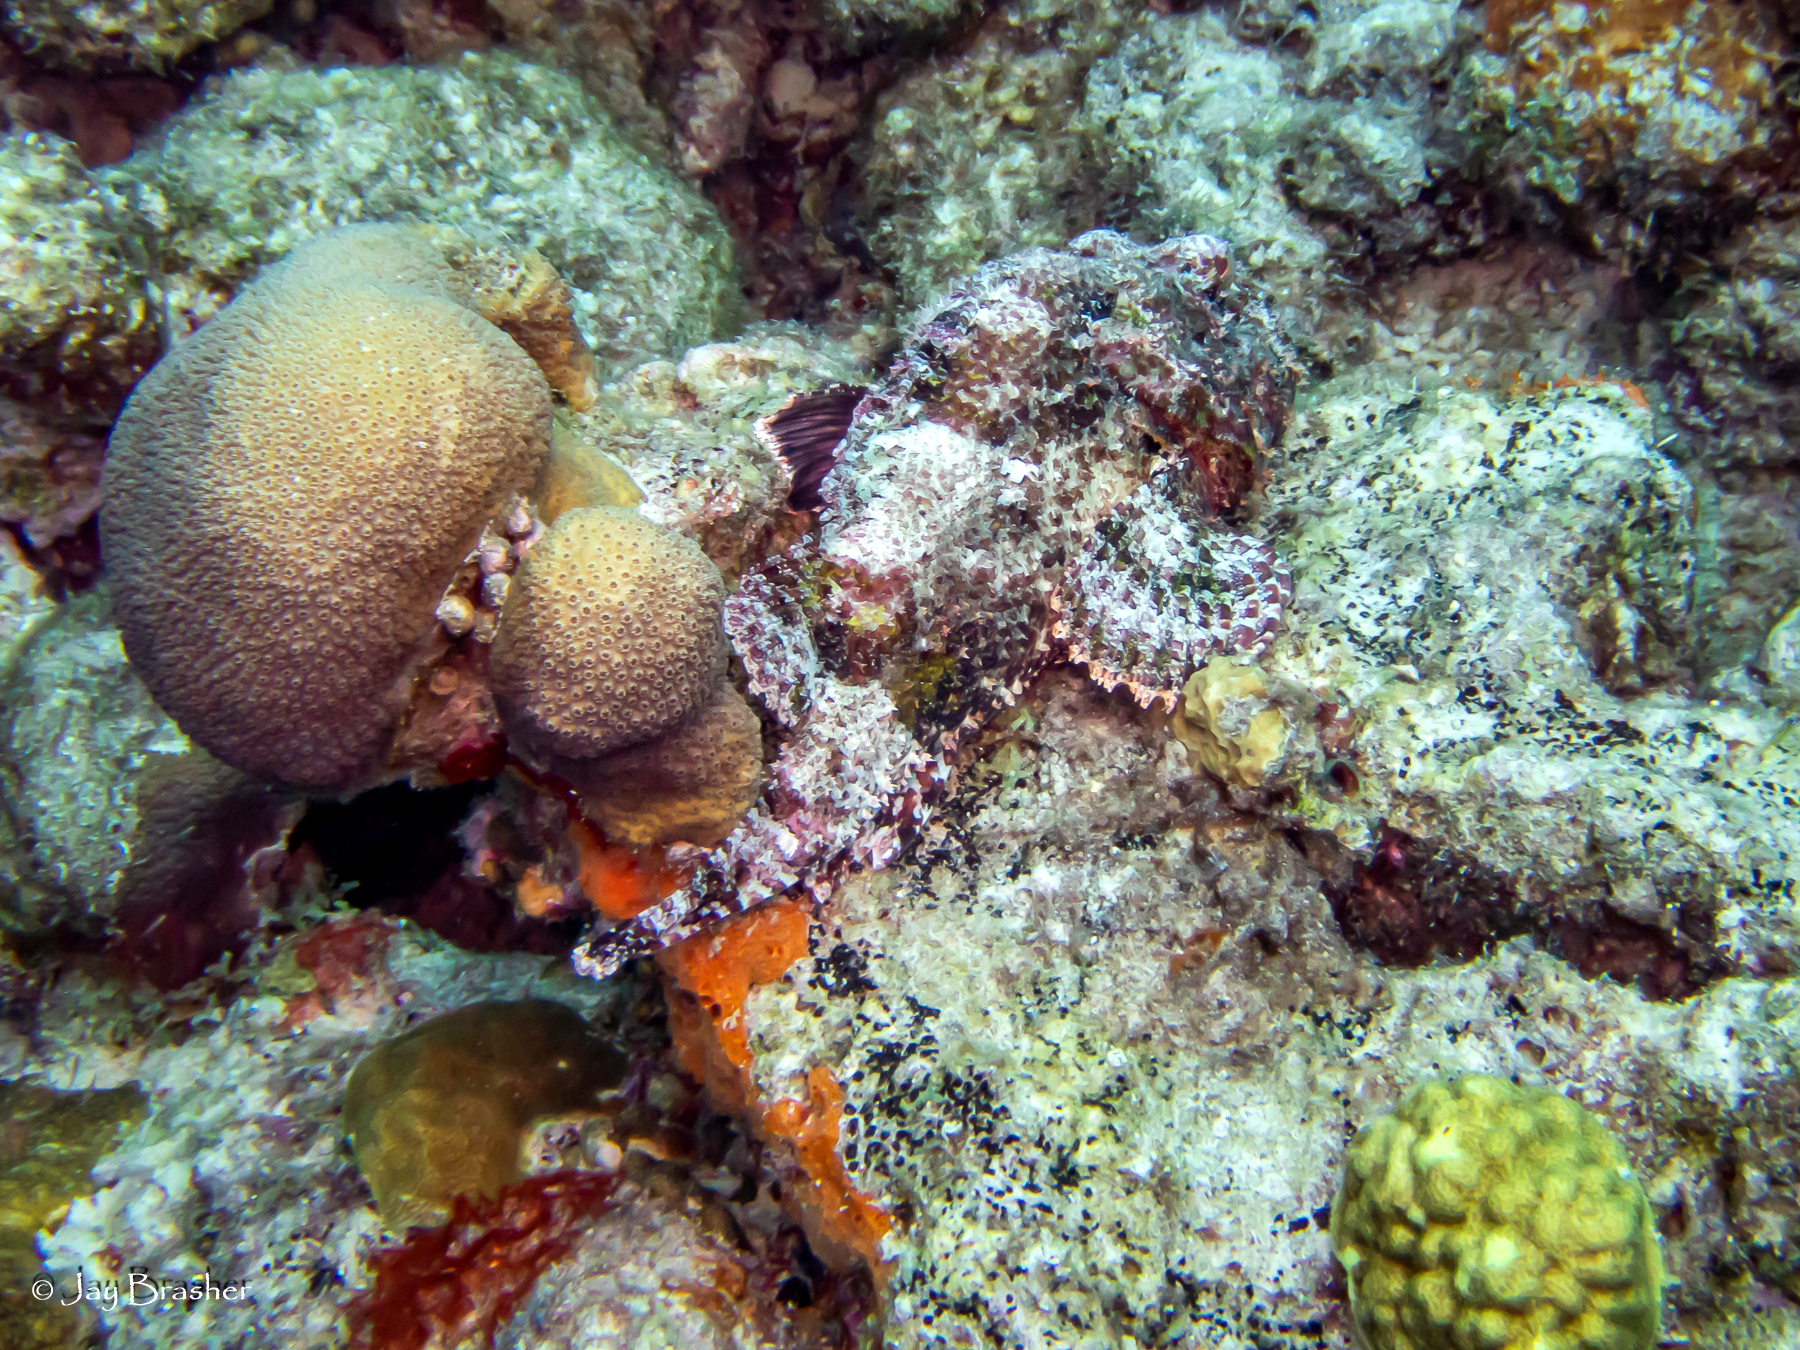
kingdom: Animalia
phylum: Porifera
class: Demospongiae
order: Scopalinida
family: Scopalinidae
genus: Scopalina
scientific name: Scopalina ruetzleri
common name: Orange lumpy encrusting sponge
